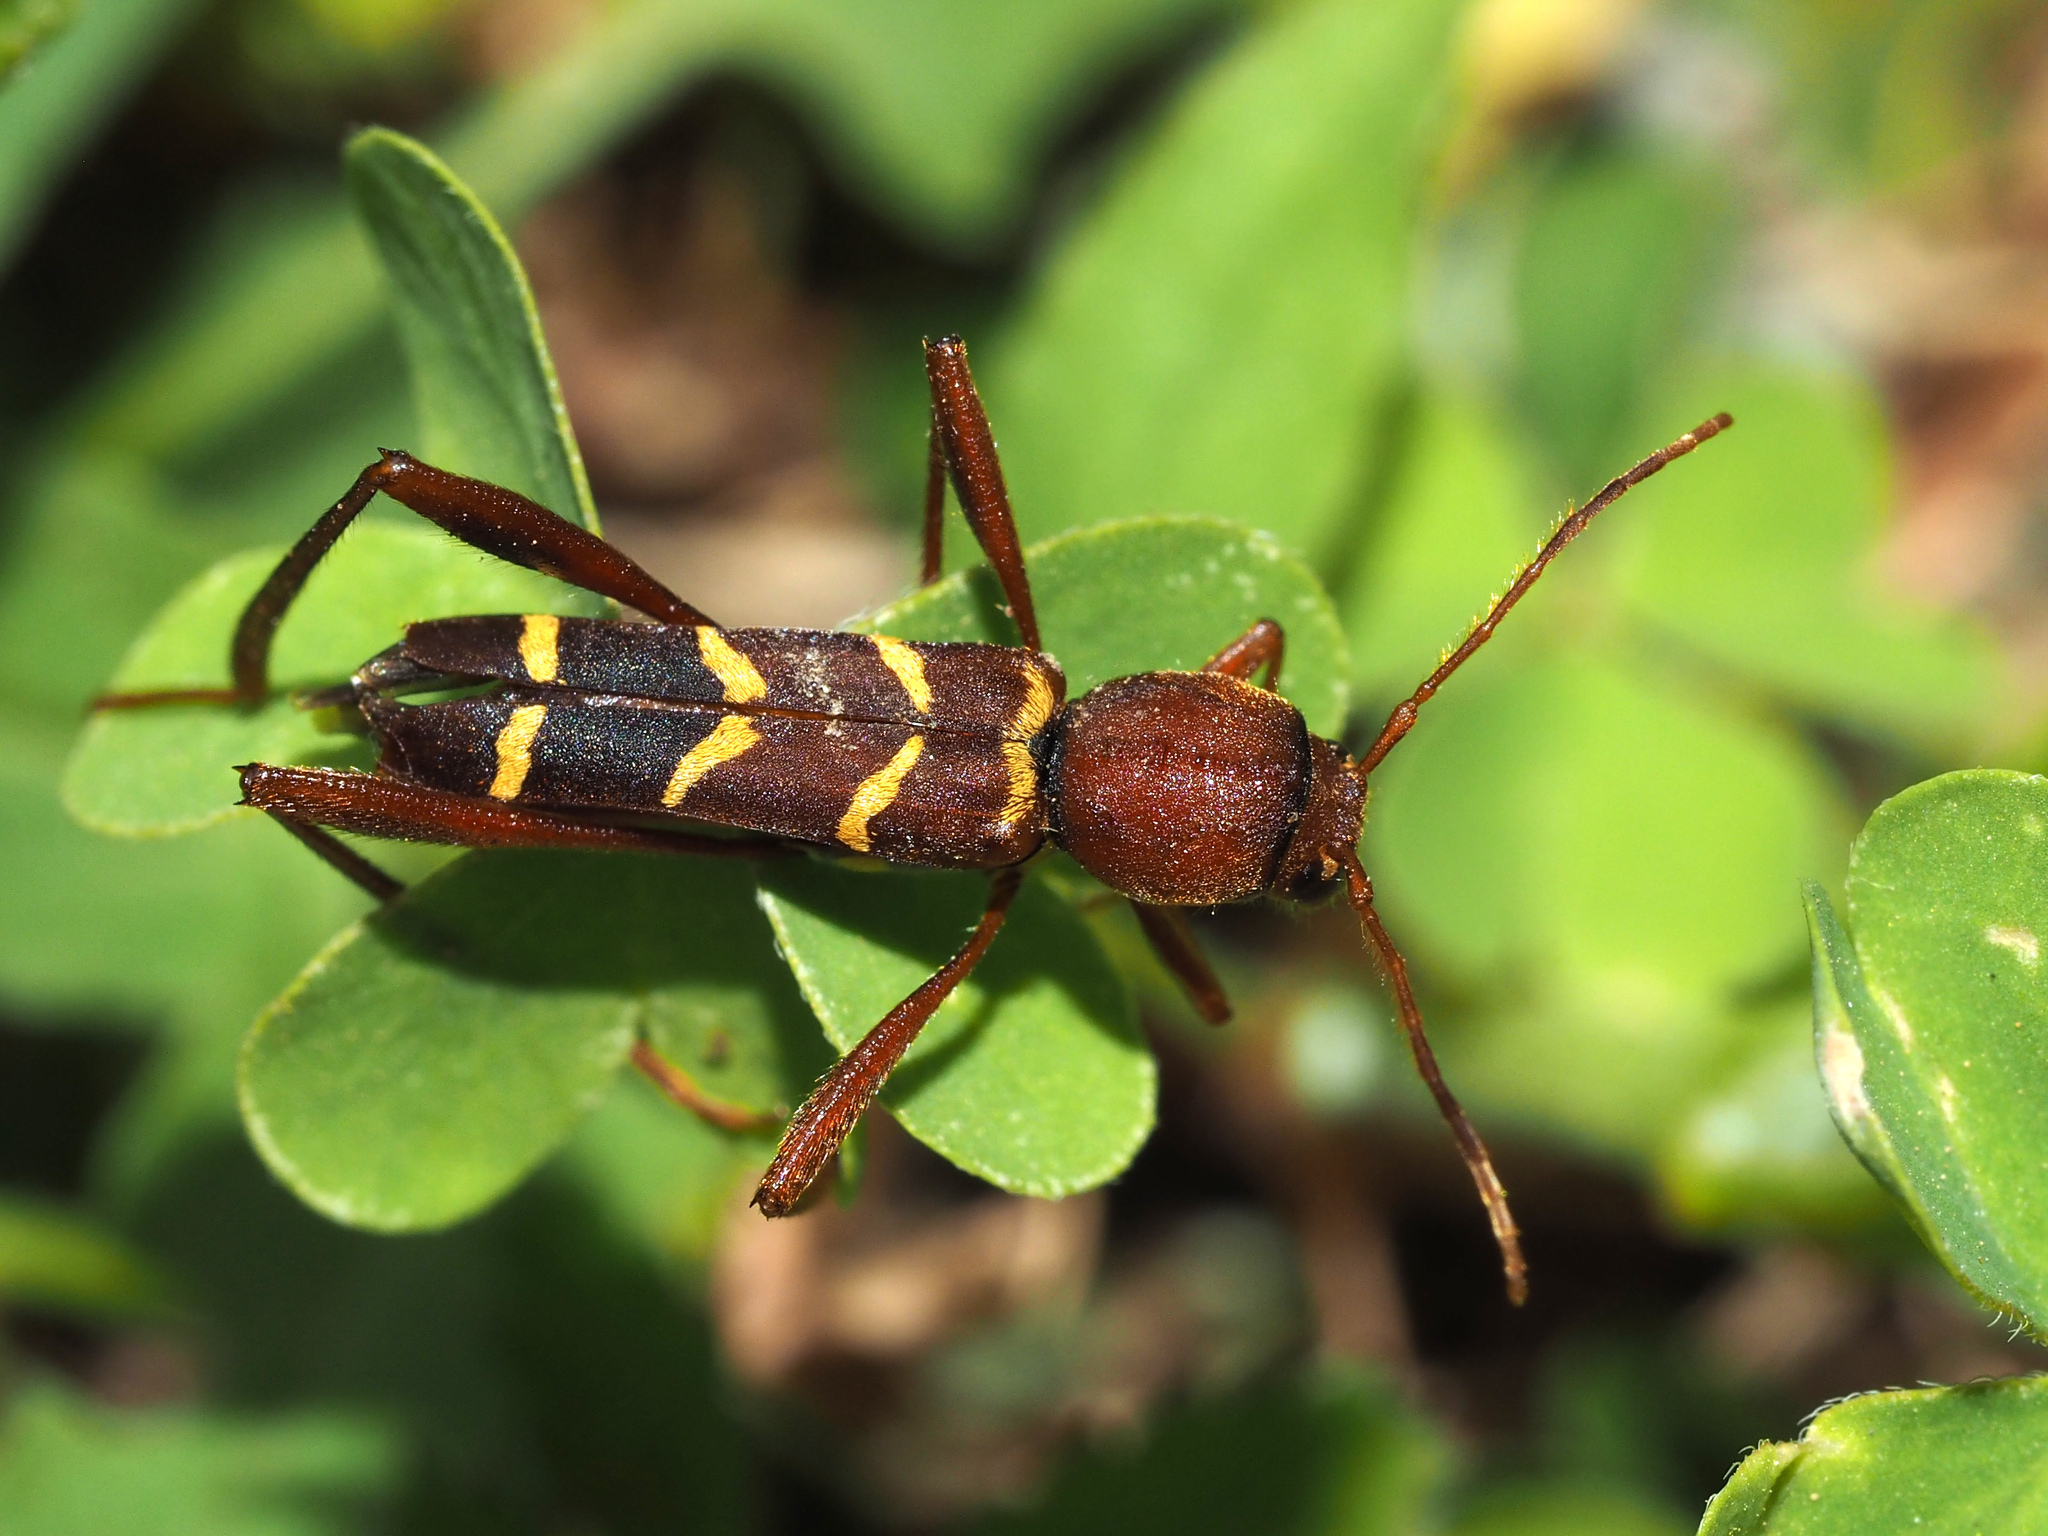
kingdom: Animalia
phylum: Arthropoda
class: Insecta
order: Coleoptera
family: Cerambycidae
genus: Neoclytus
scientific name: Neoclytus acuminatus
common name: Read-headed ash borer
